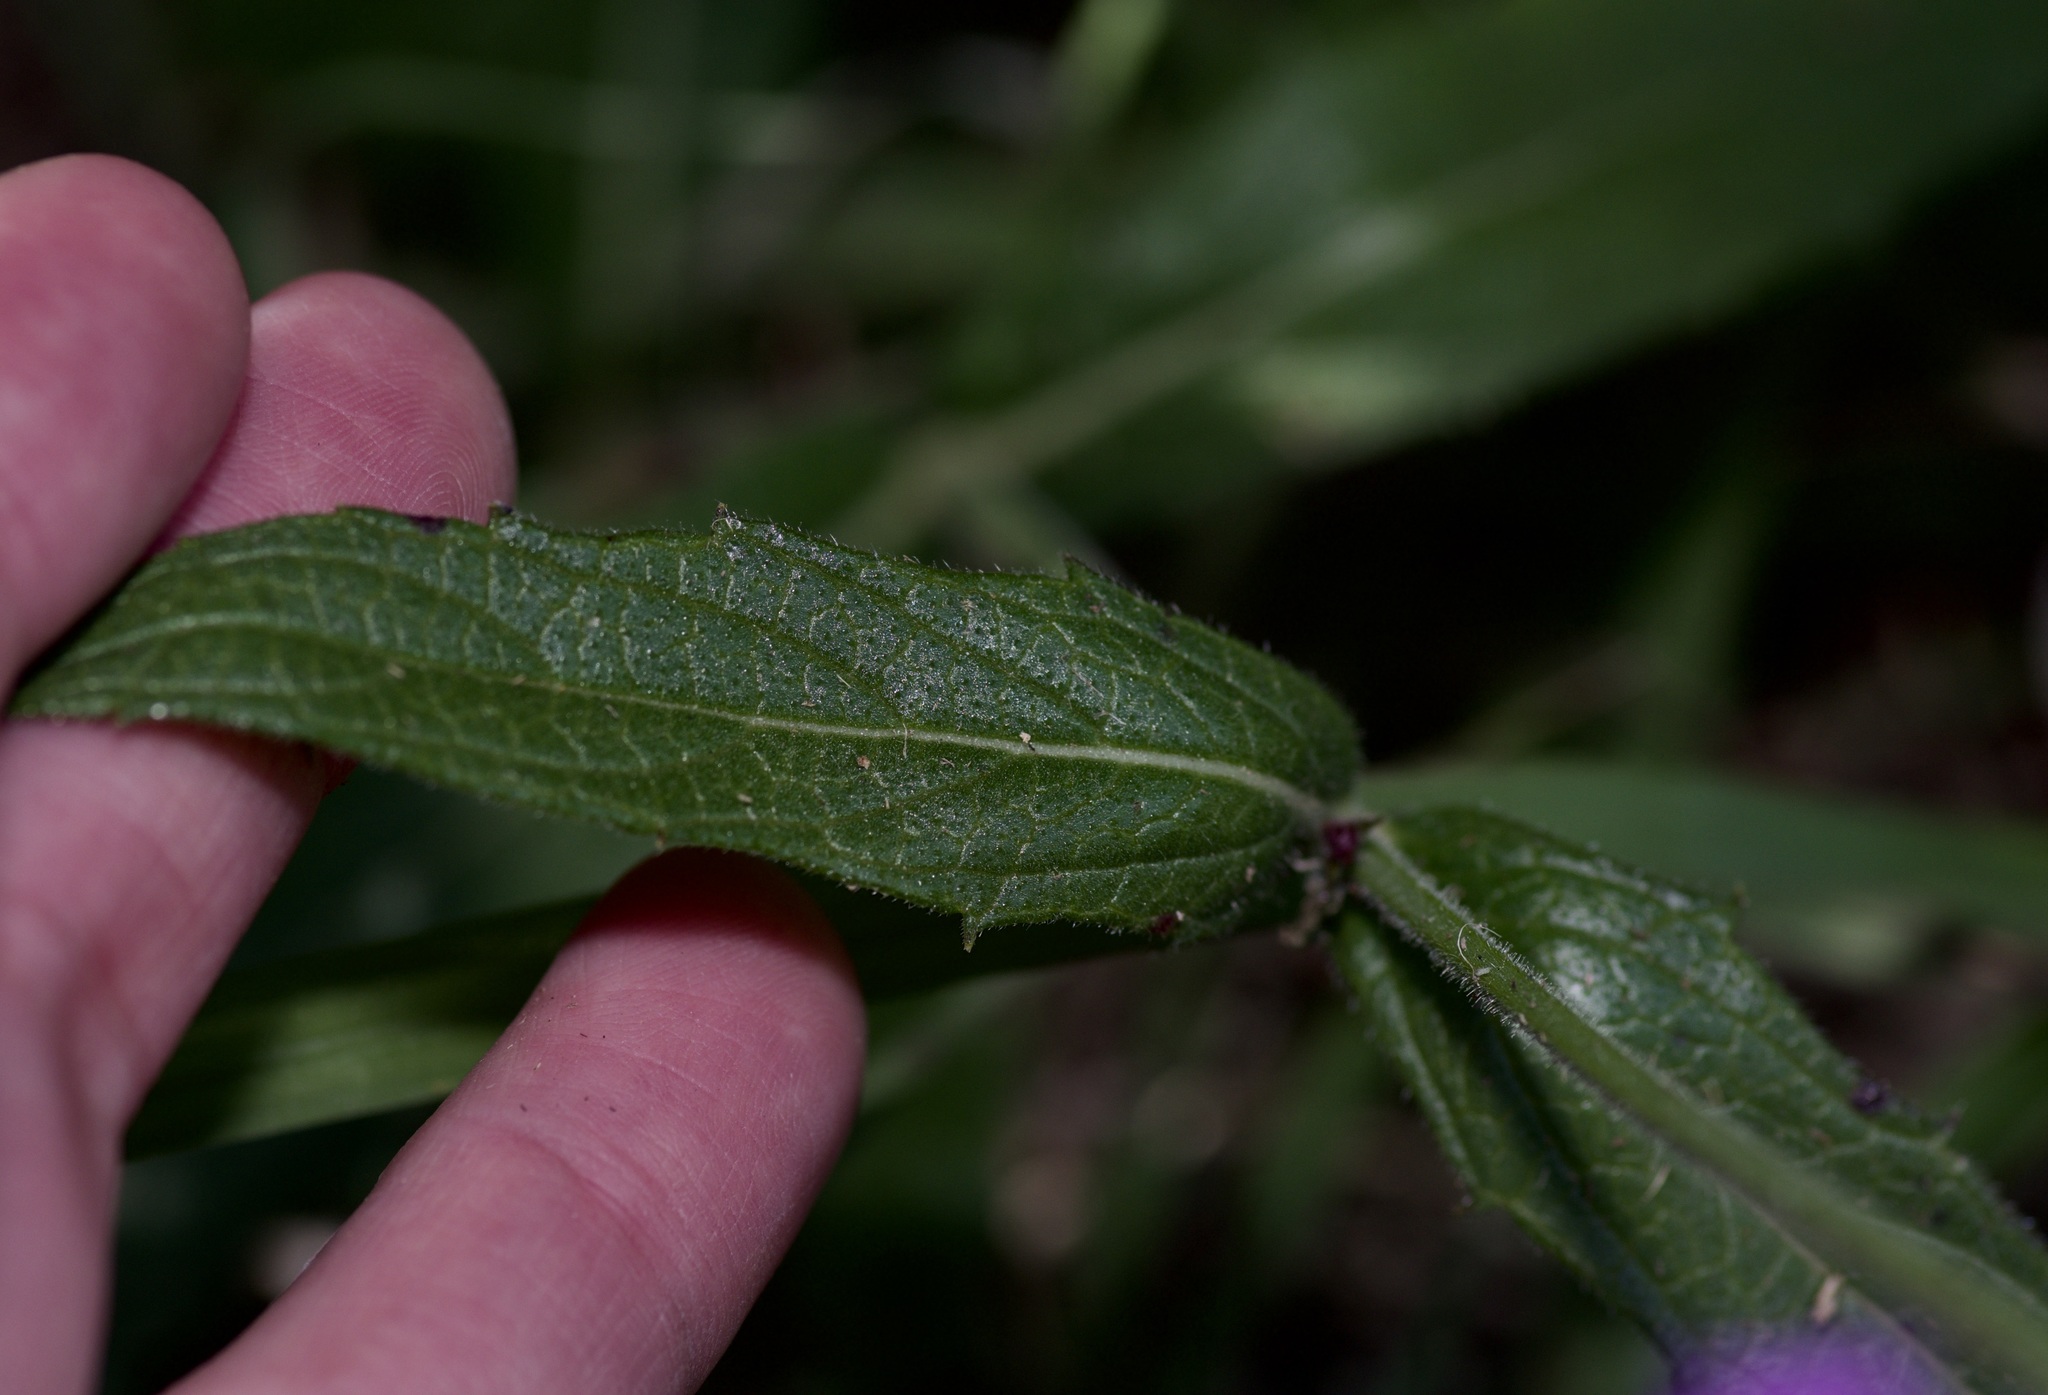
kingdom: Plantae
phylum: Tracheophyta
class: Magnoliopsida
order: Lamiales
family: Verbenaceae
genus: Verbena
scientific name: Verbena rigida
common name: Slender vervain
